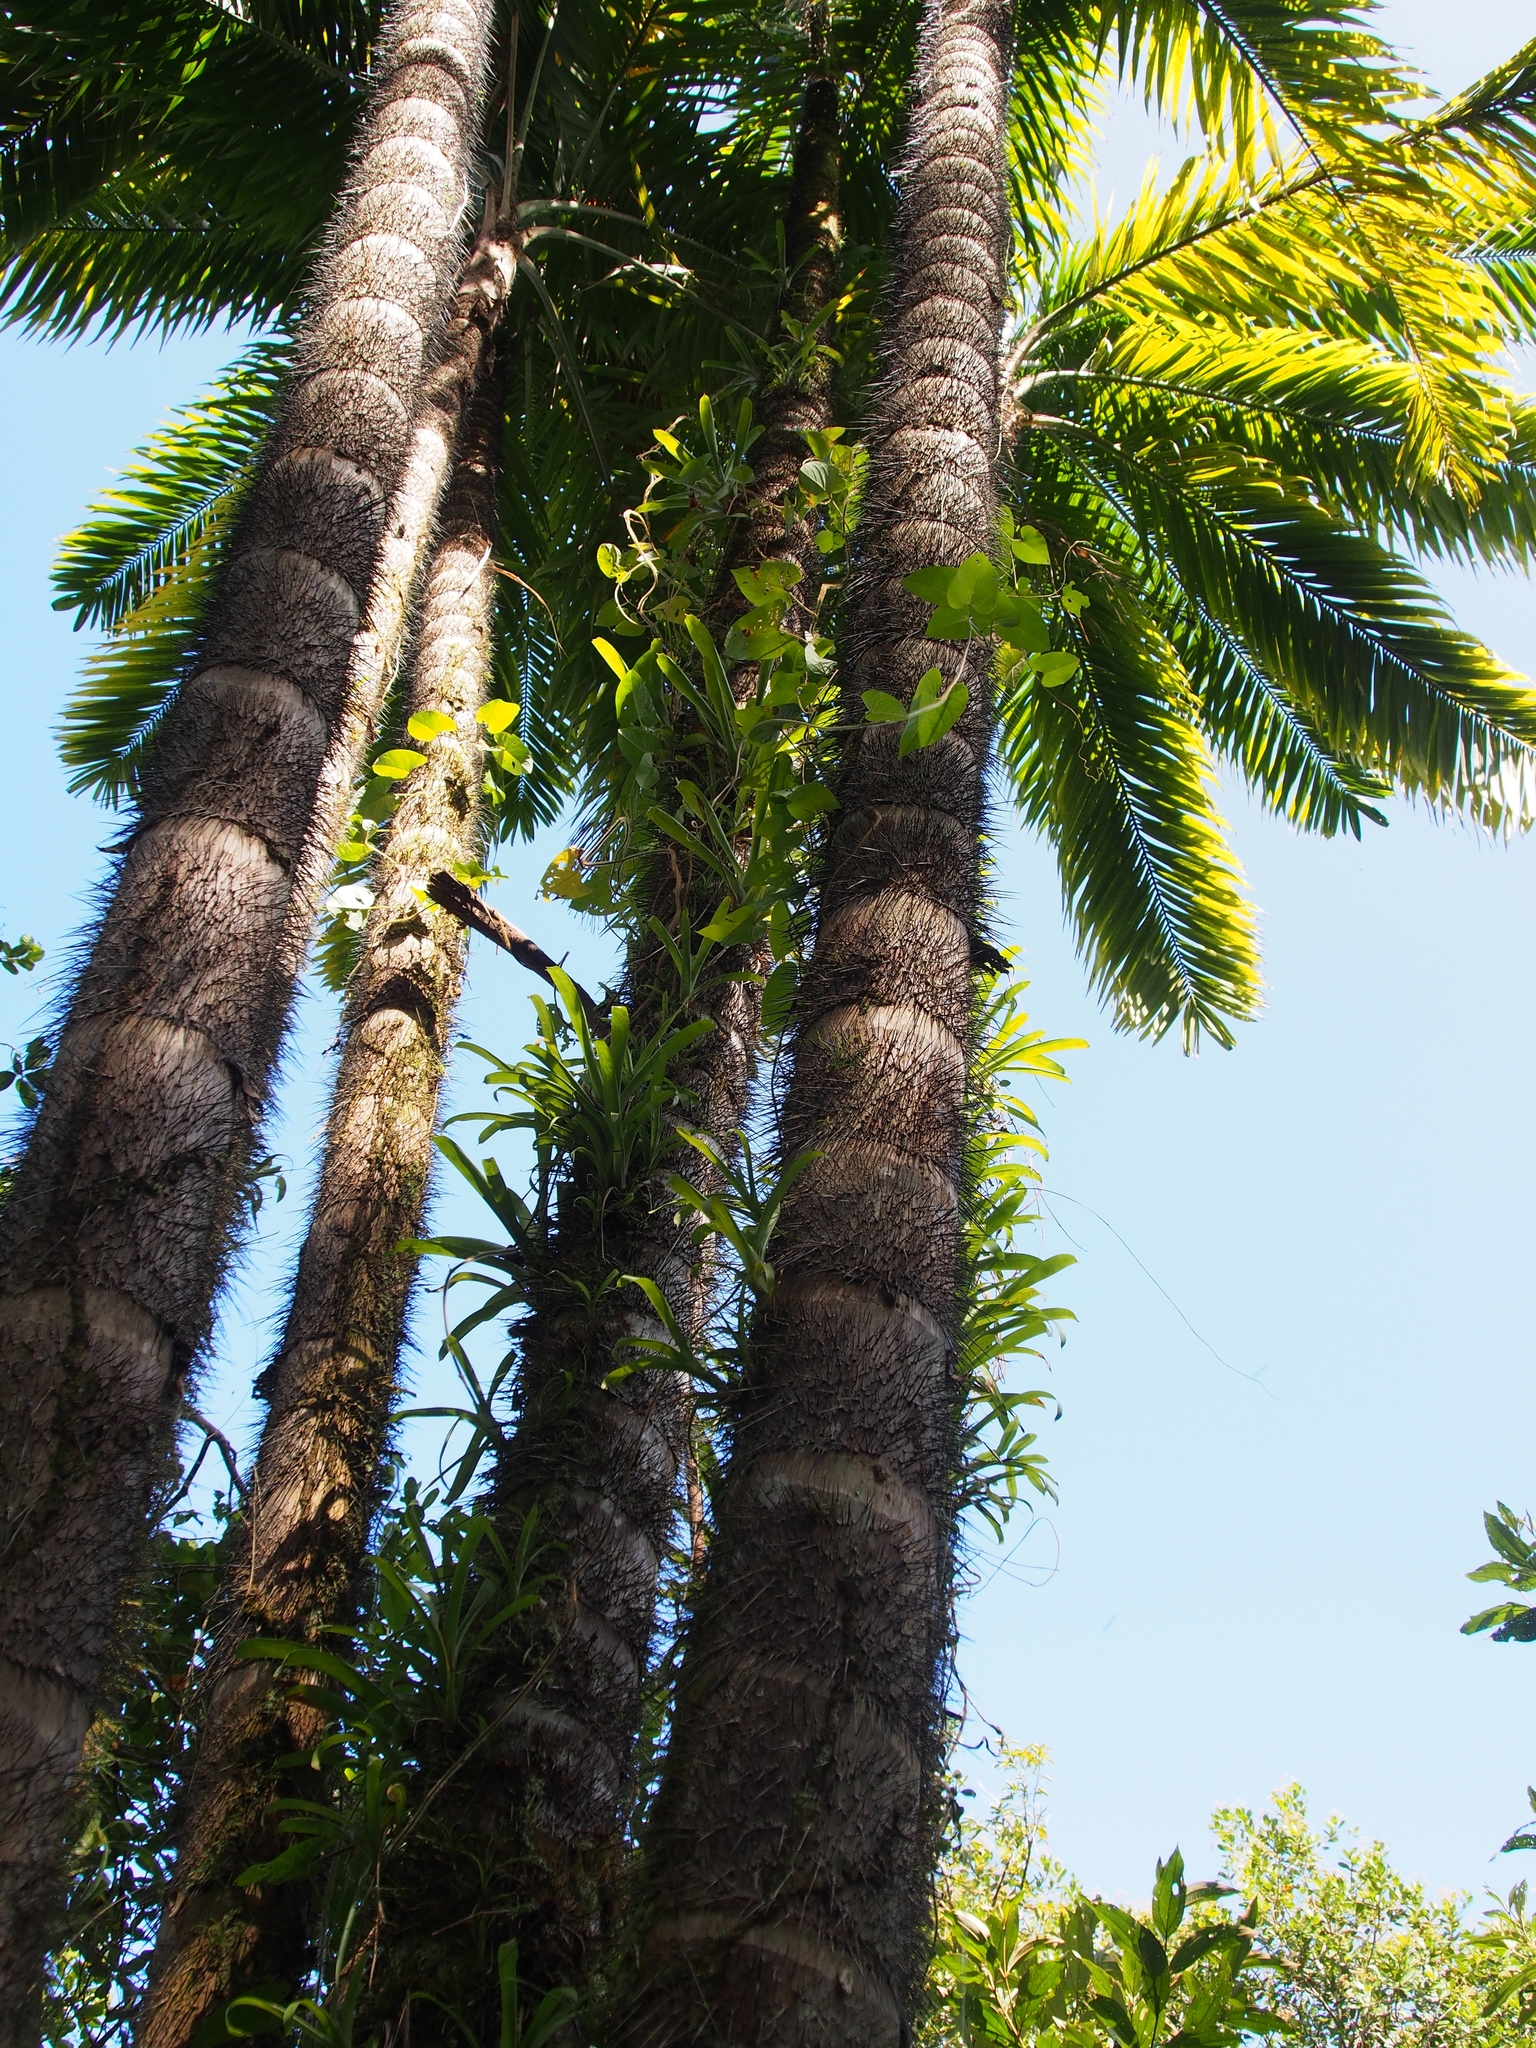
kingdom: Plantae
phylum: Tracheophyta
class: Liliopsida
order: Arecales
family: Arecaceae
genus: Bactris
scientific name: Bactris gasipaes
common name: Peach palm
